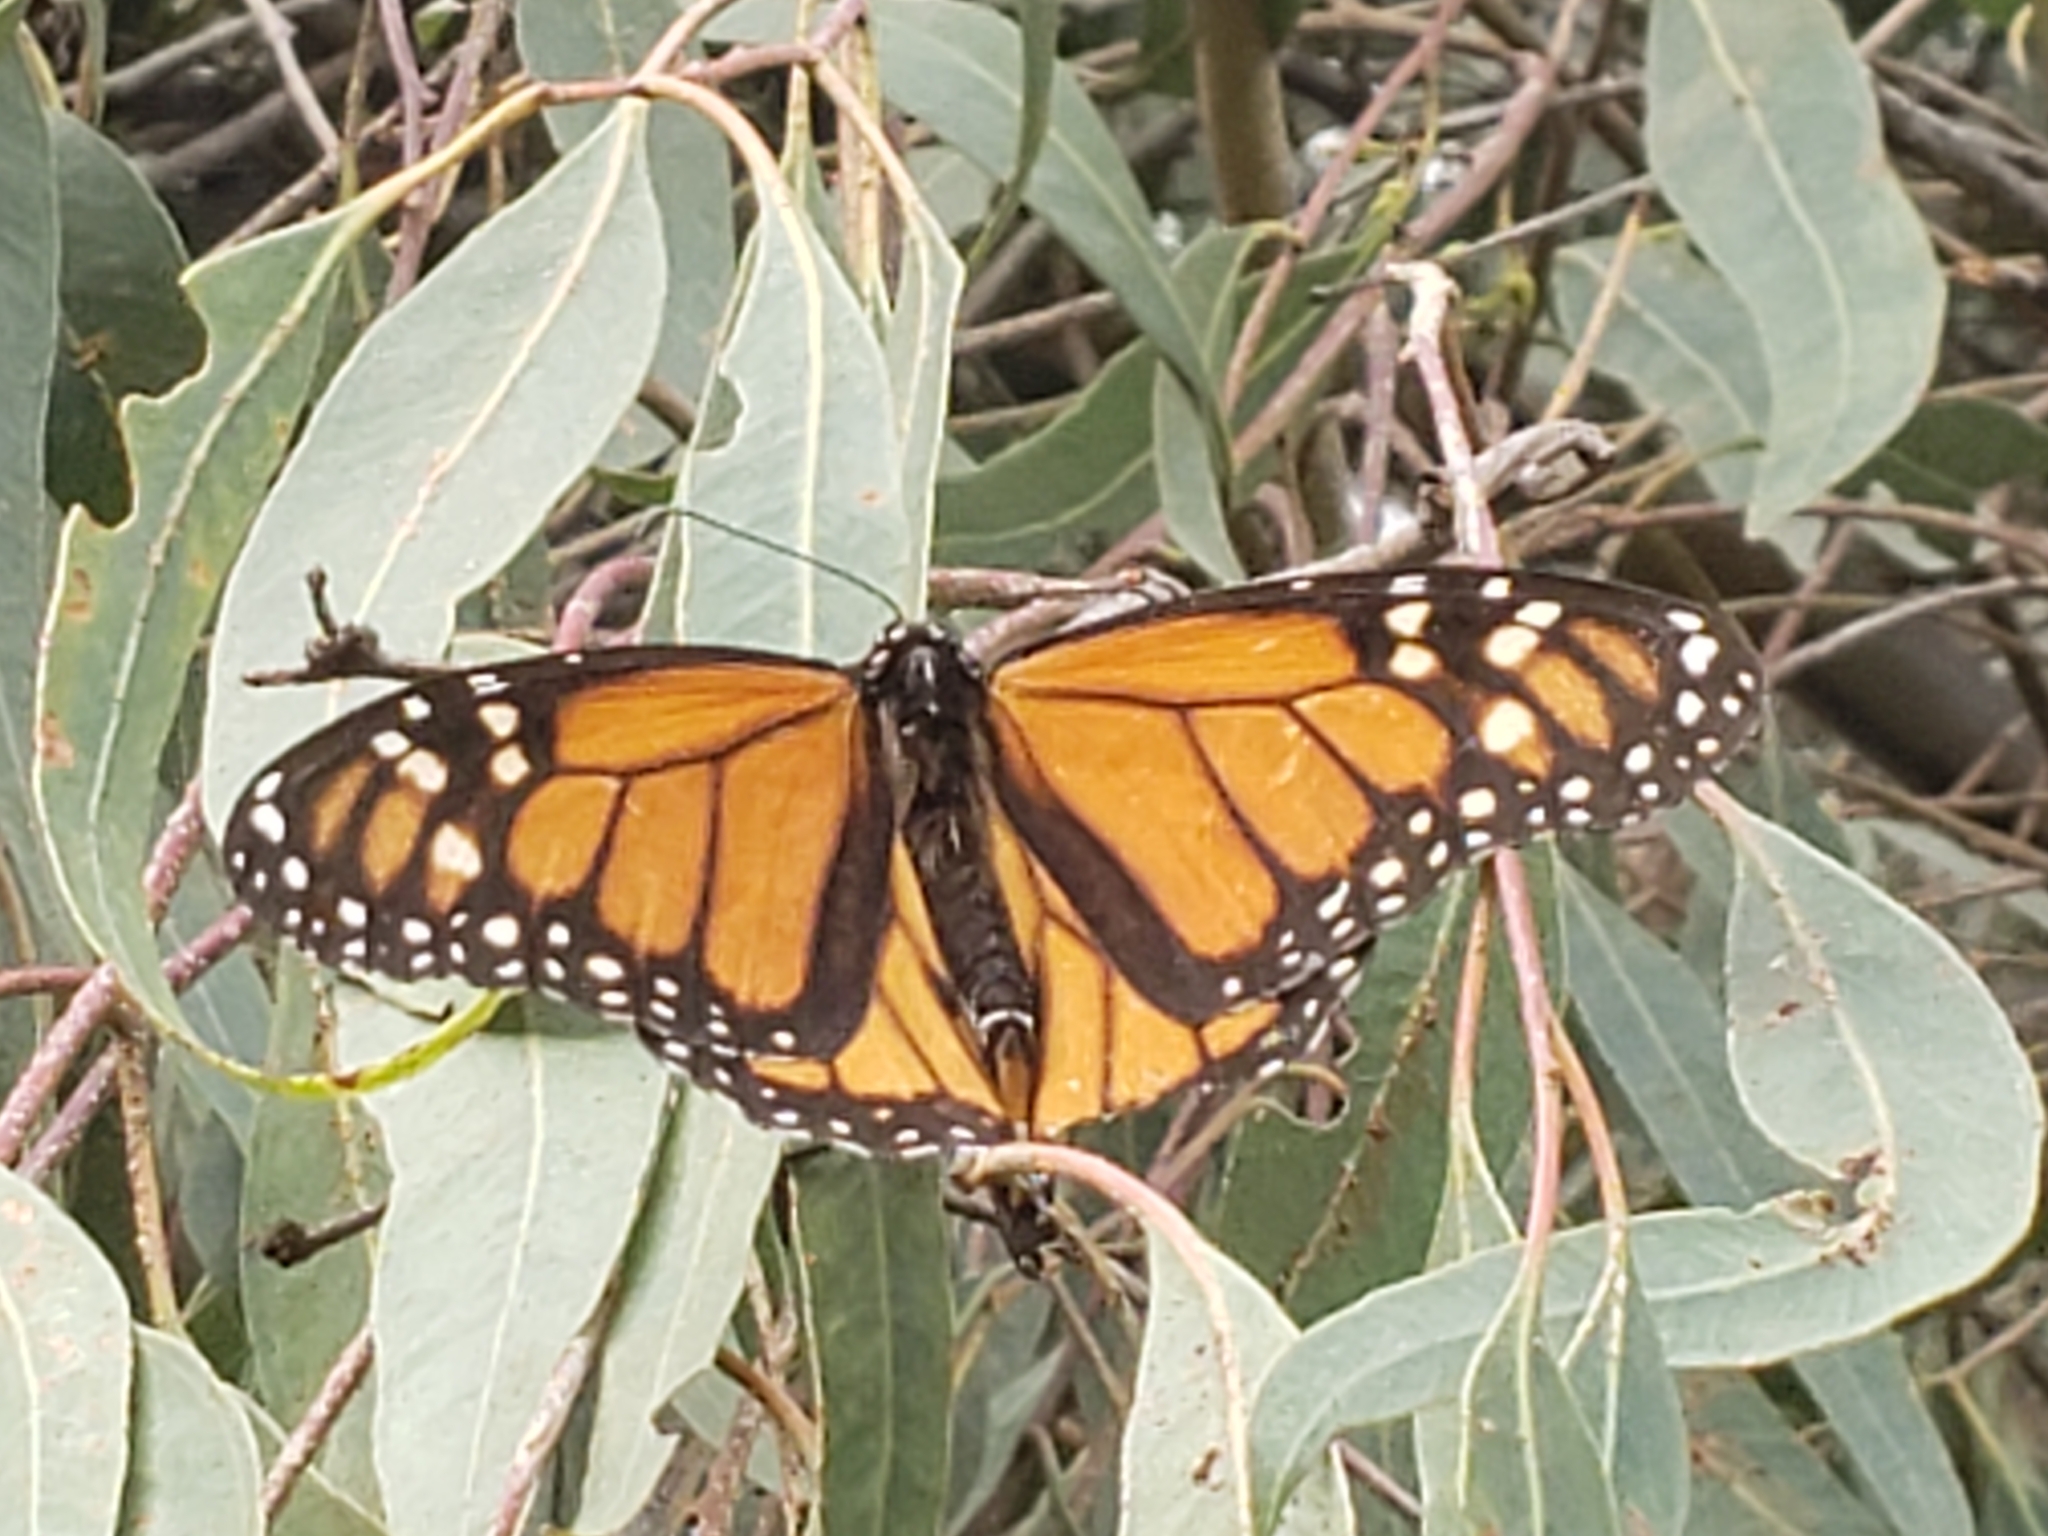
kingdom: Animalia
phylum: Arthropoda
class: Insecta
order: Lepidoptera
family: Nymphalidae
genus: Danaus
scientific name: Danaus plexippus
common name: Monarch
